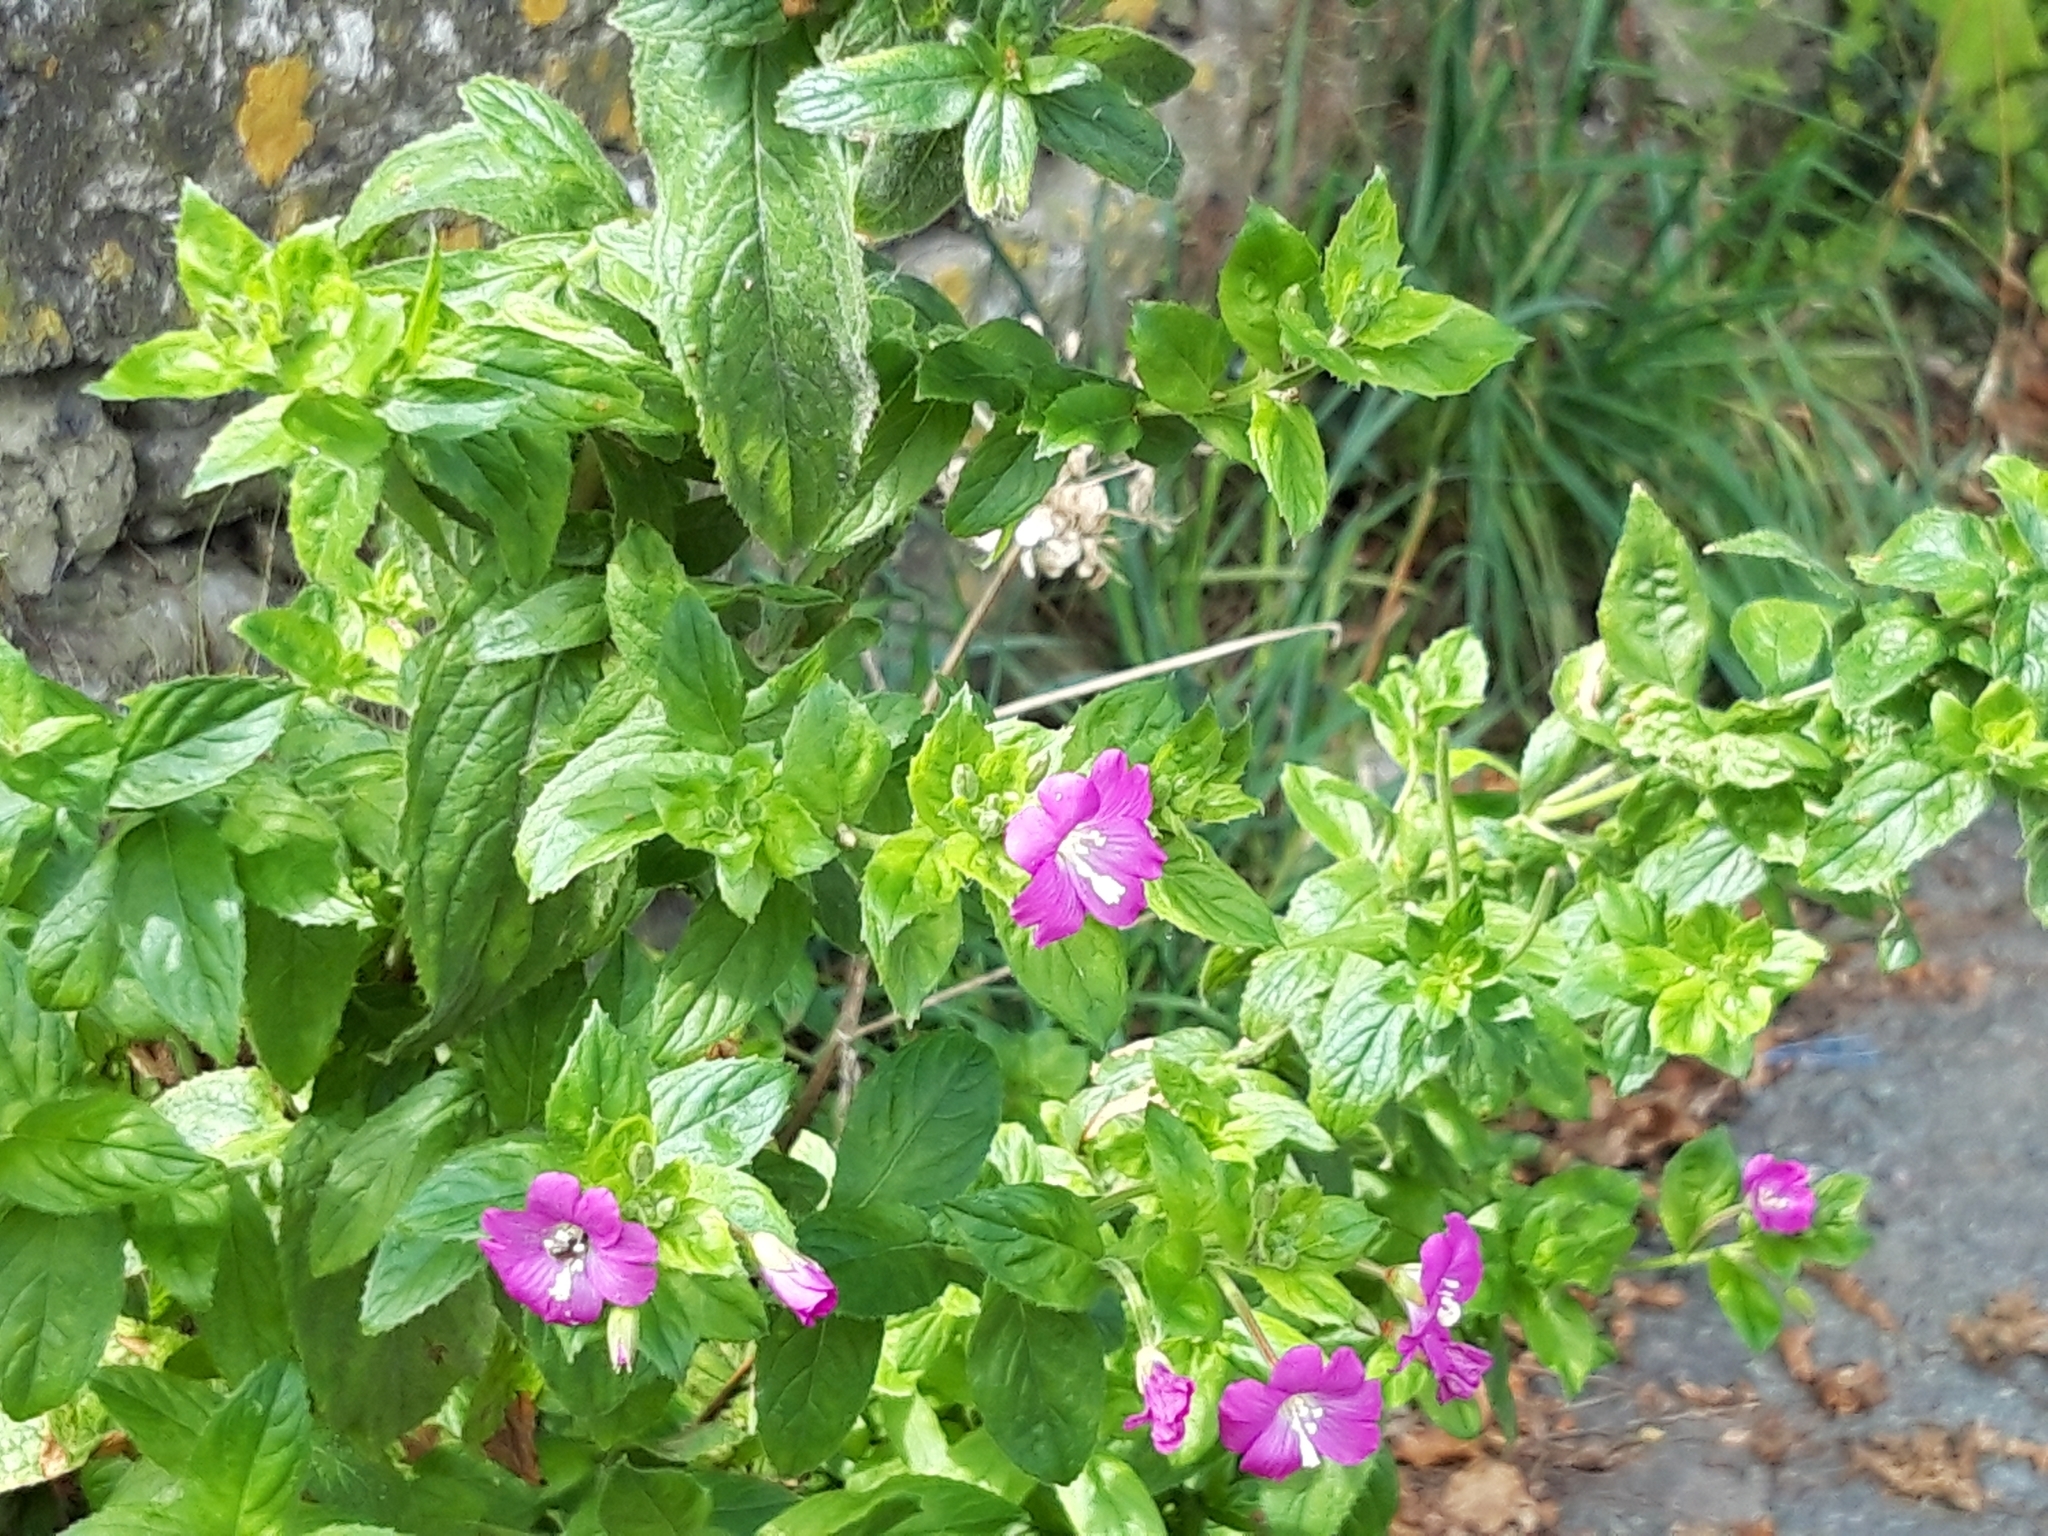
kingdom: Plantae
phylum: Tracheophyta
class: Magnoliopsida
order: Myrtales
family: Onagraceae
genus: Epilobium
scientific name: Epilobium hirsutum
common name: Great willowherb
